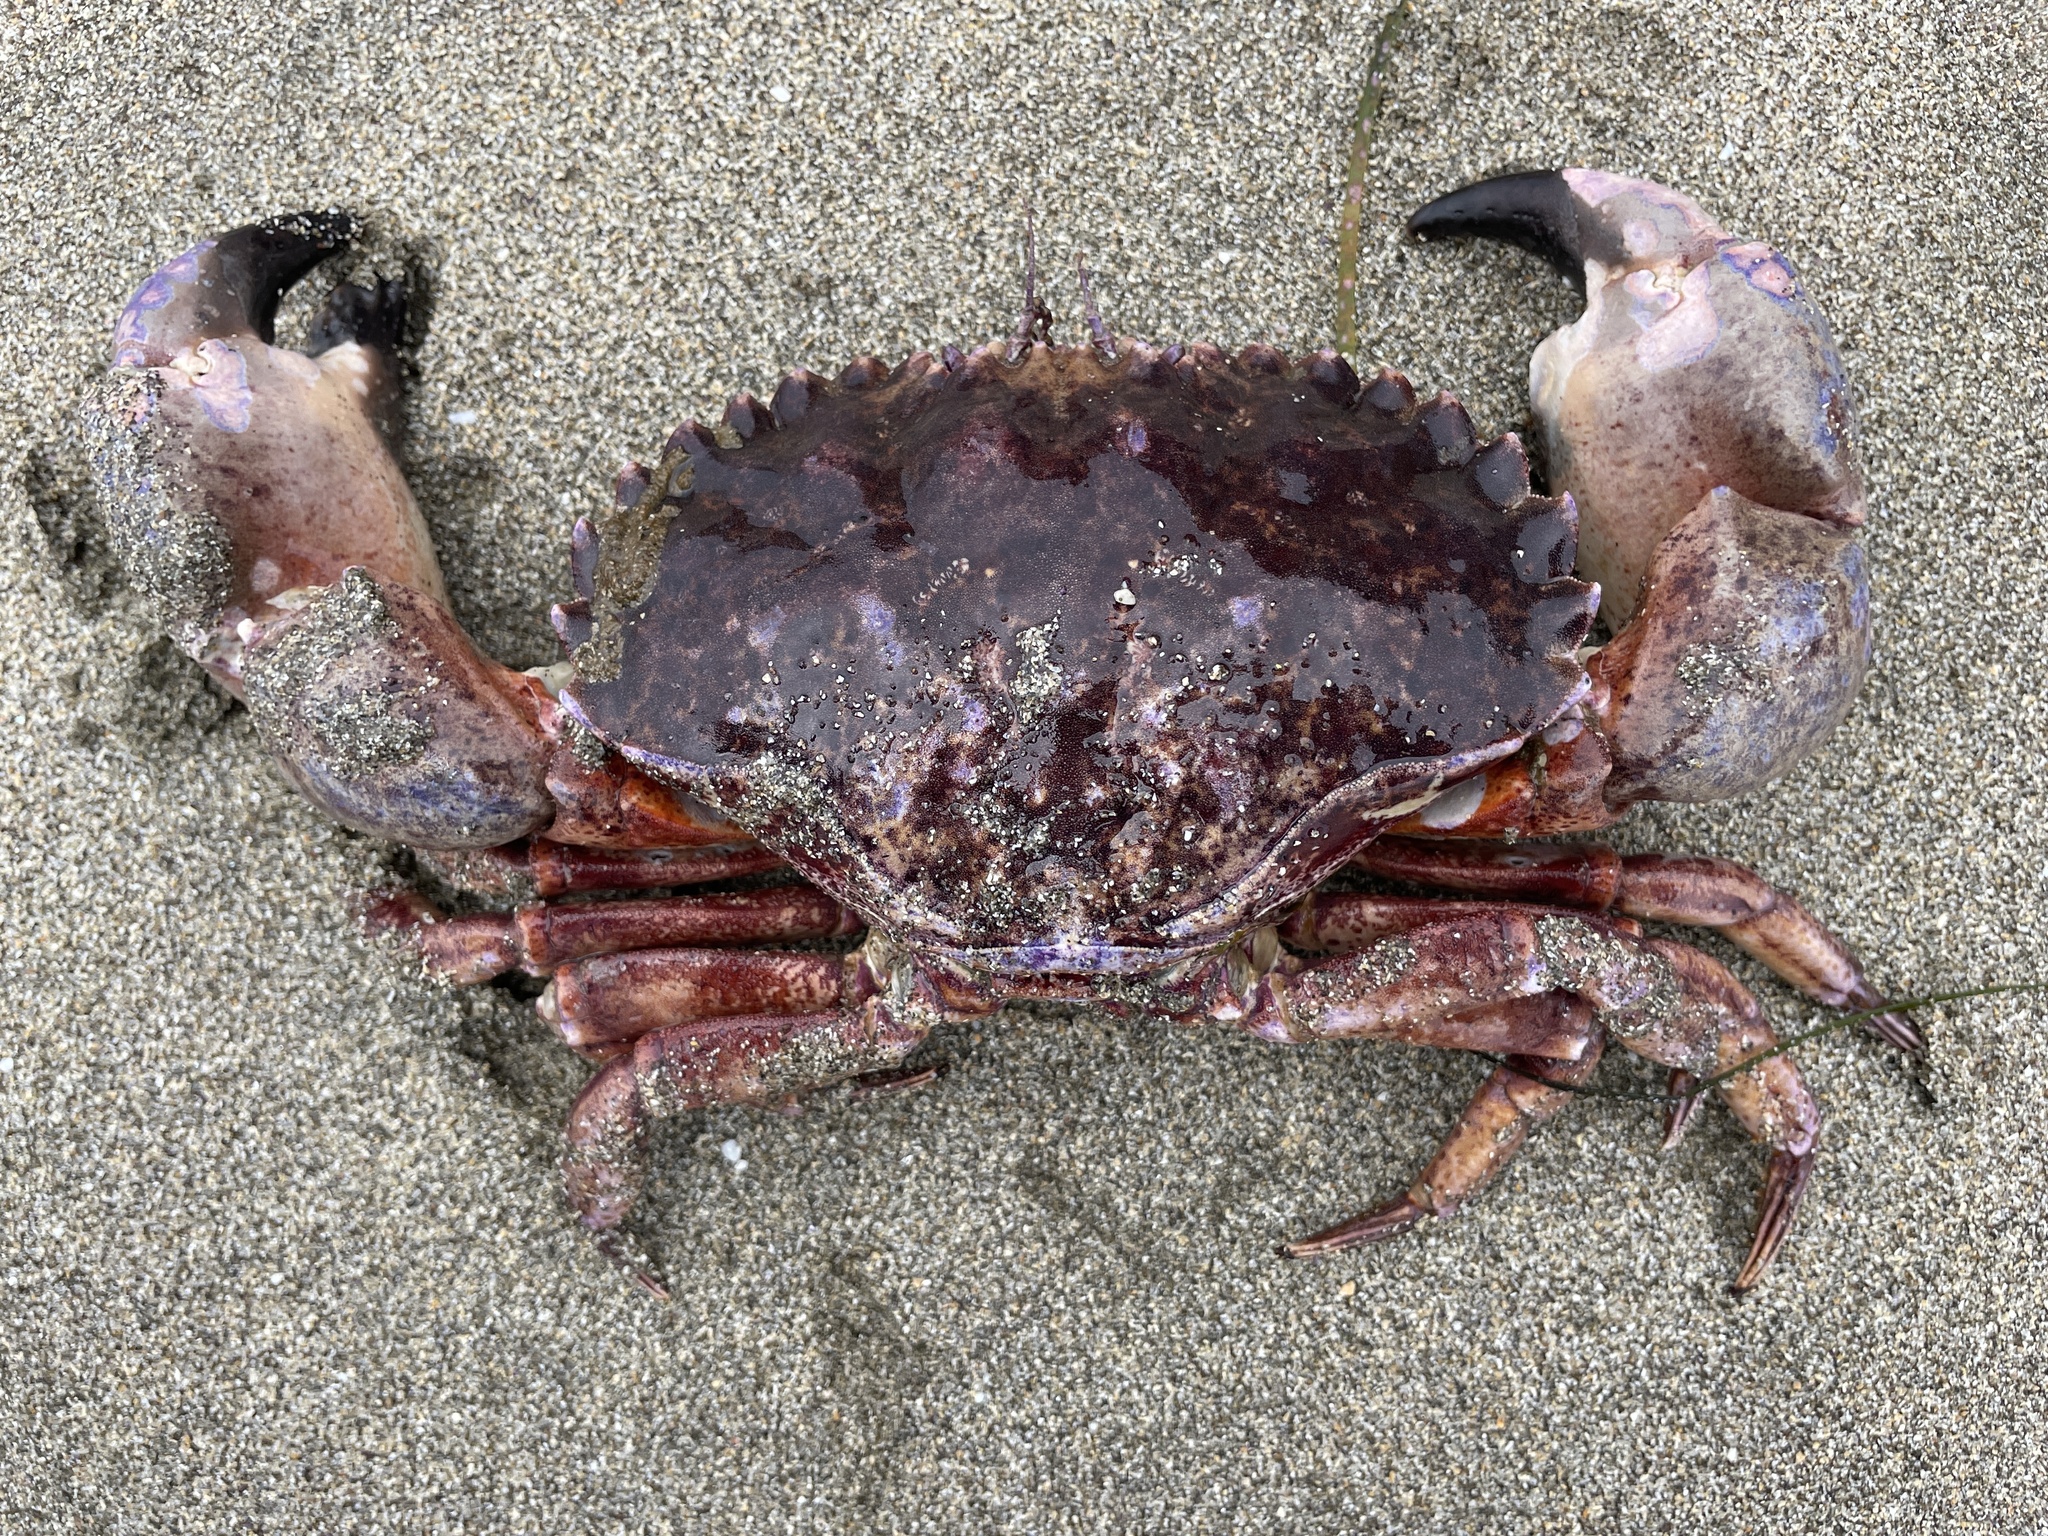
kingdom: Animalia
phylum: Arthropoda
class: Malacostraca
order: Decapoda
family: Cancridae
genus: Romaleon
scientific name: Romaleon antennarium
